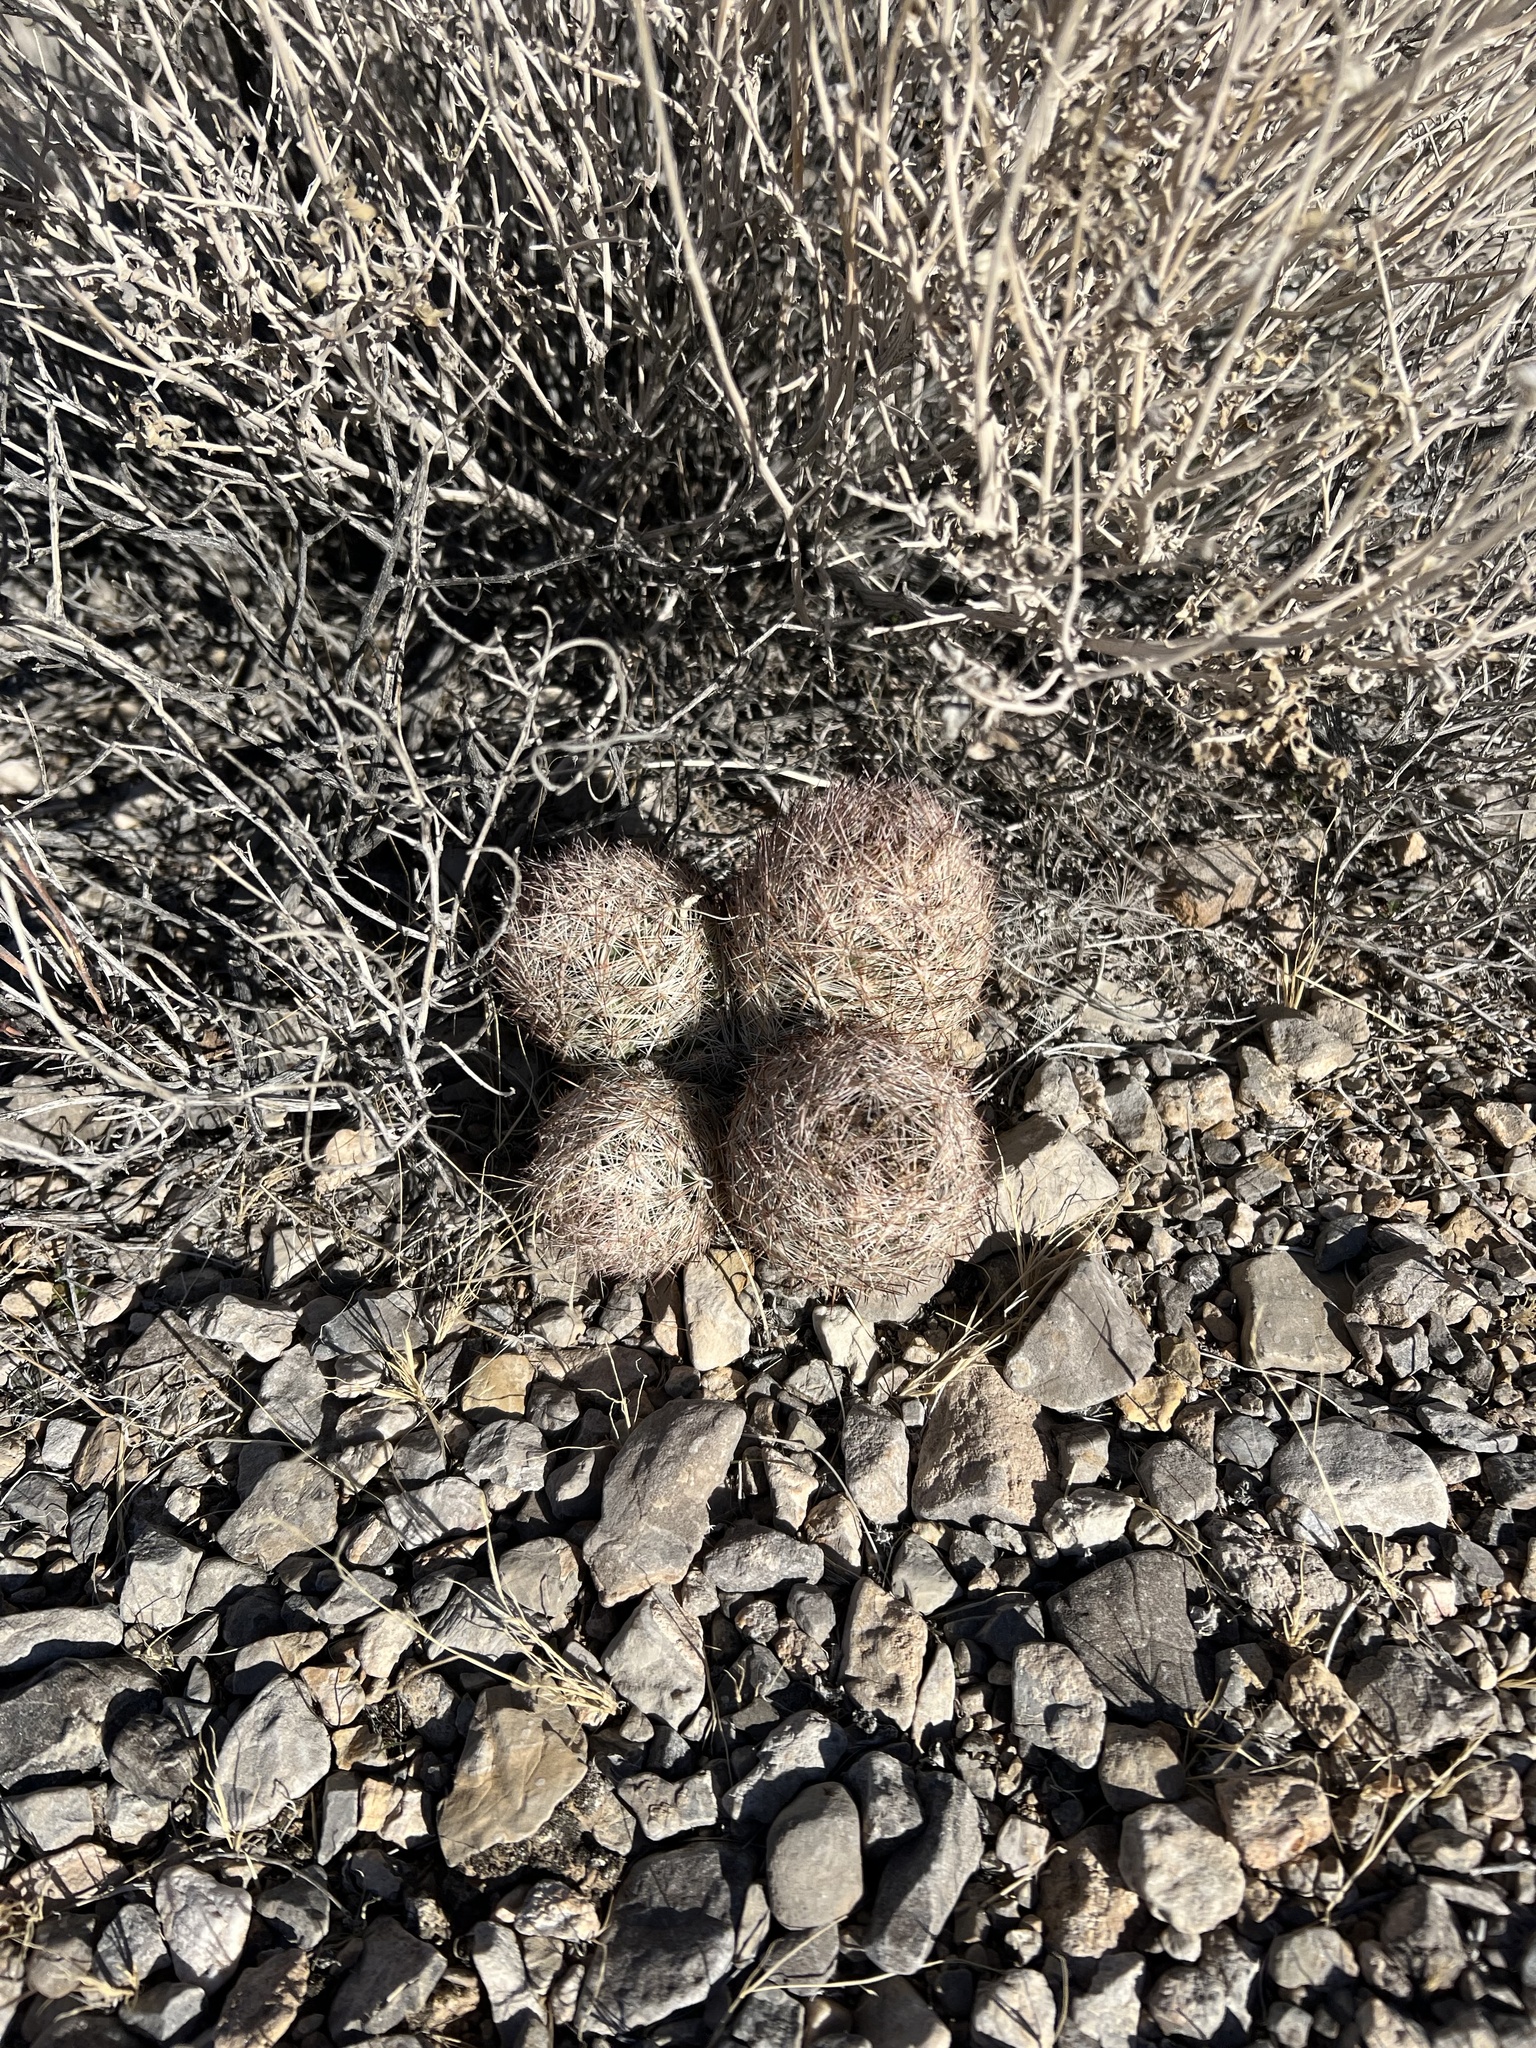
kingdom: Plantae
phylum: Tracheophyta
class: Magnoliopsida
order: Caryophyllales
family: Cactaceae
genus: Pelecyphora
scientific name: Pelecyphora dasyacantha
